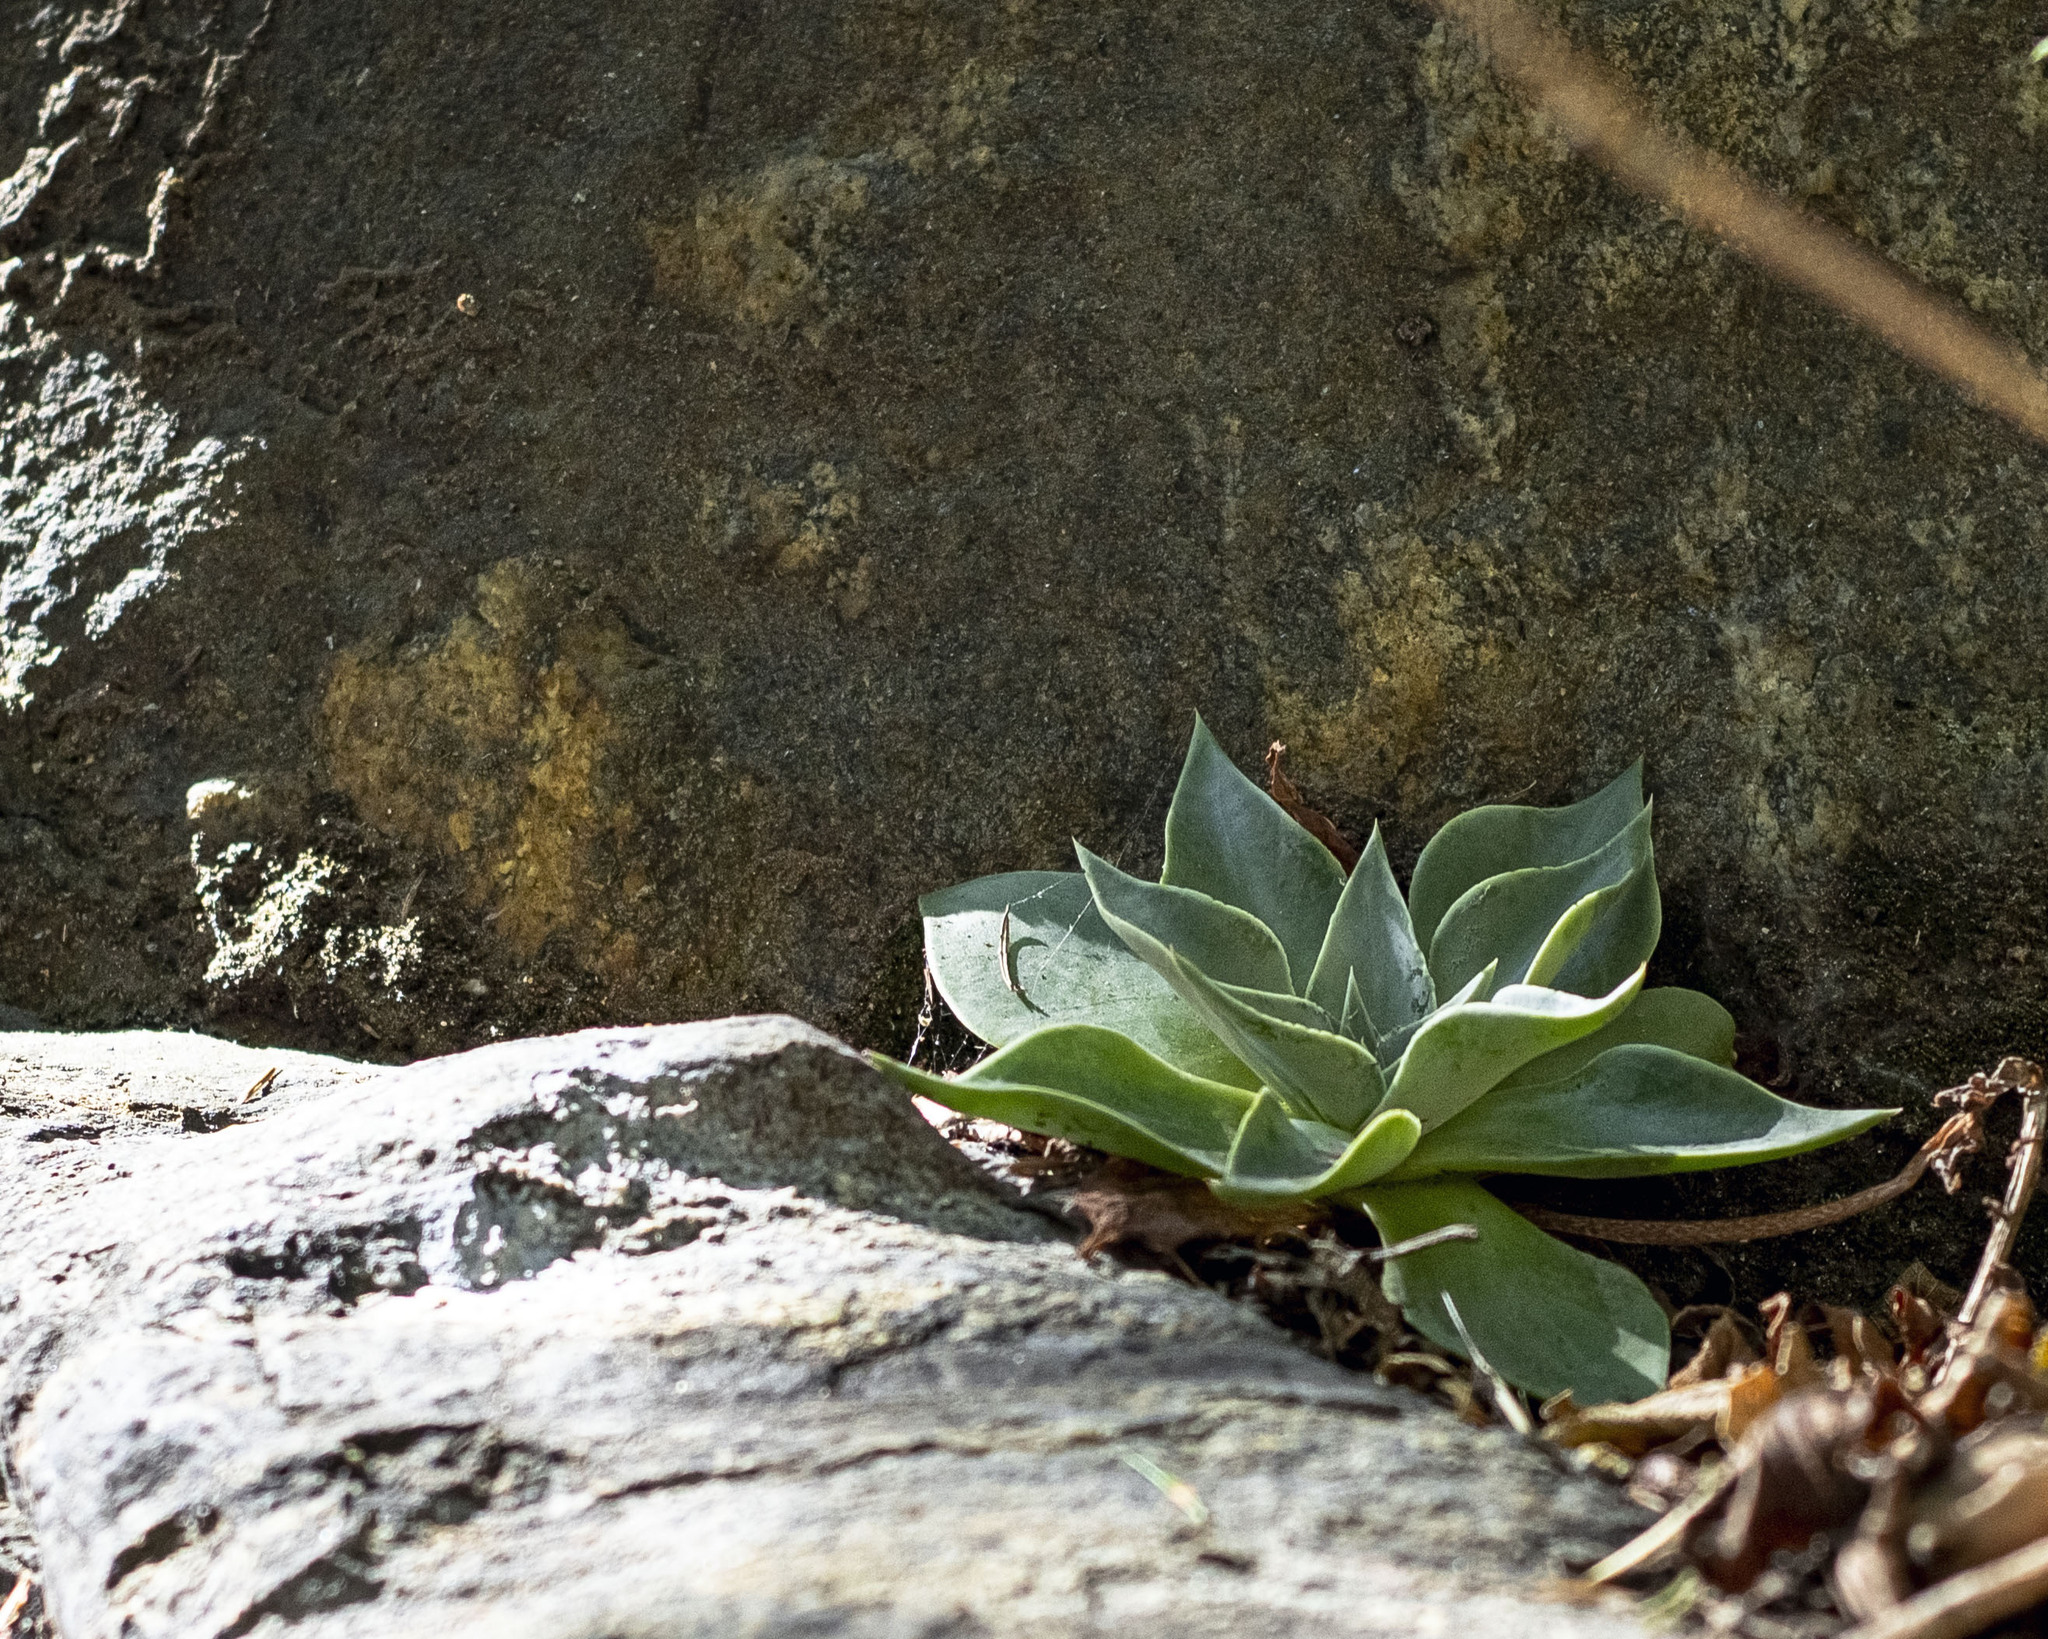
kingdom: Plantae
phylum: Tracheophyta
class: Magnoliopsida
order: Saxifragales
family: Crassulaceae
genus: Dudleya
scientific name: Dudleya cymosa
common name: Canyon dudleya
